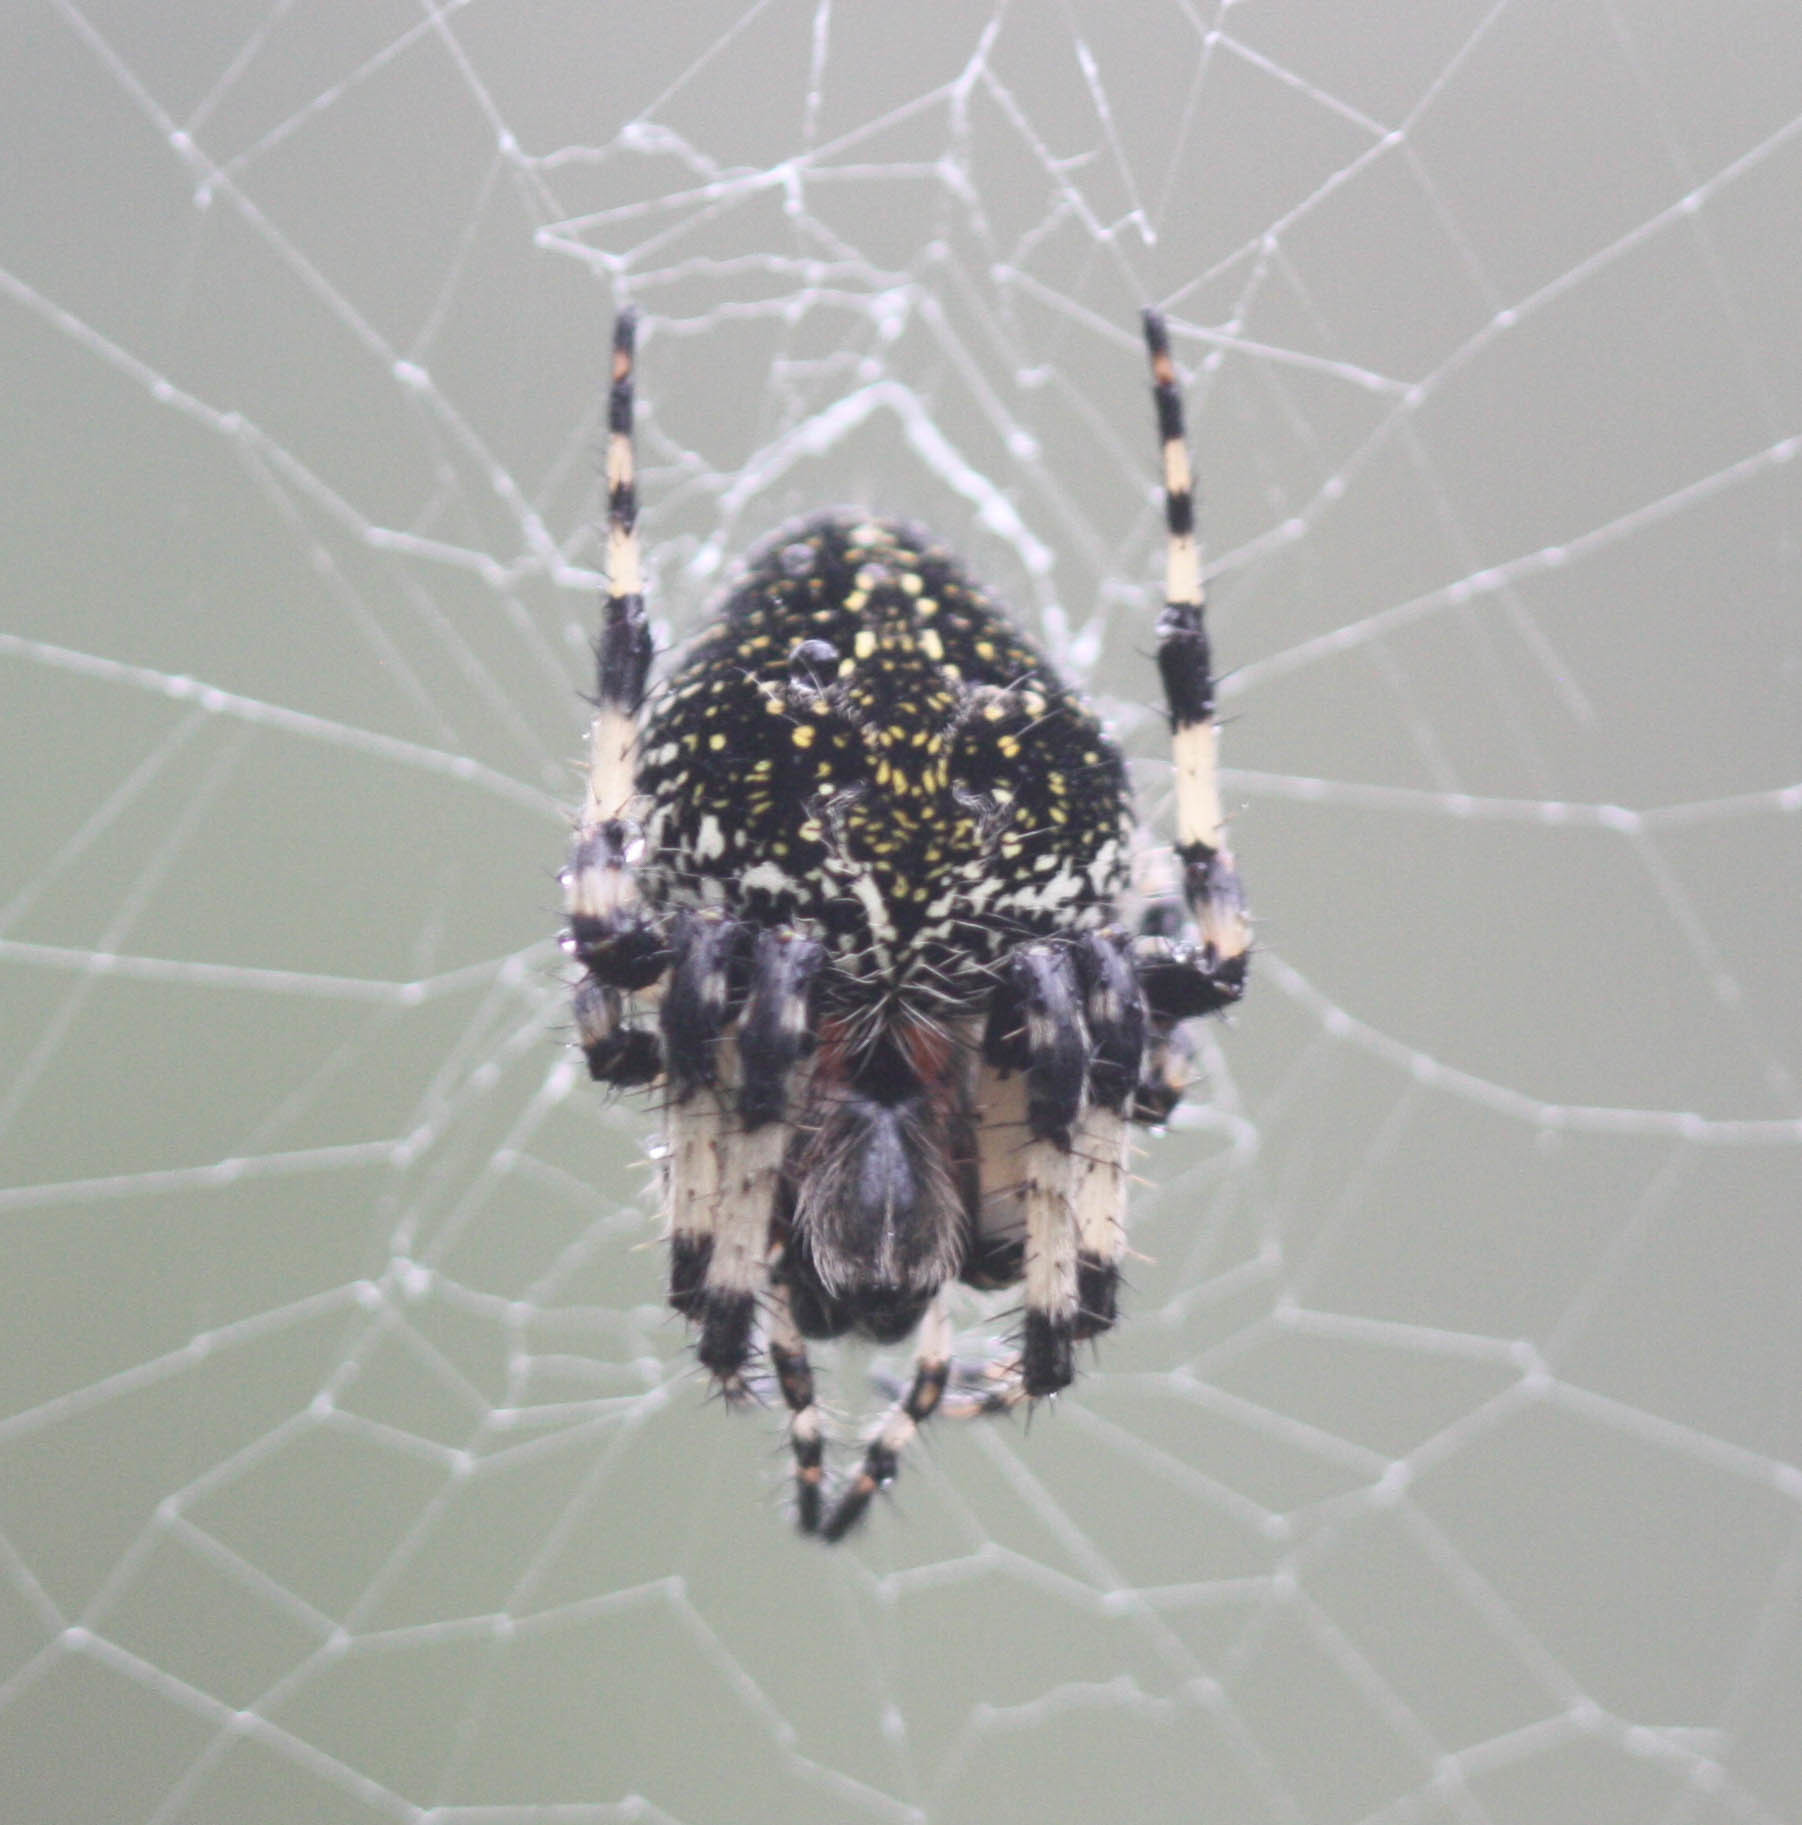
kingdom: Animalia
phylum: Arthropoda
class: Arachnida
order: Araneae
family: Araneidae
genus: Neoscona
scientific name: Neoscona orizabensis
